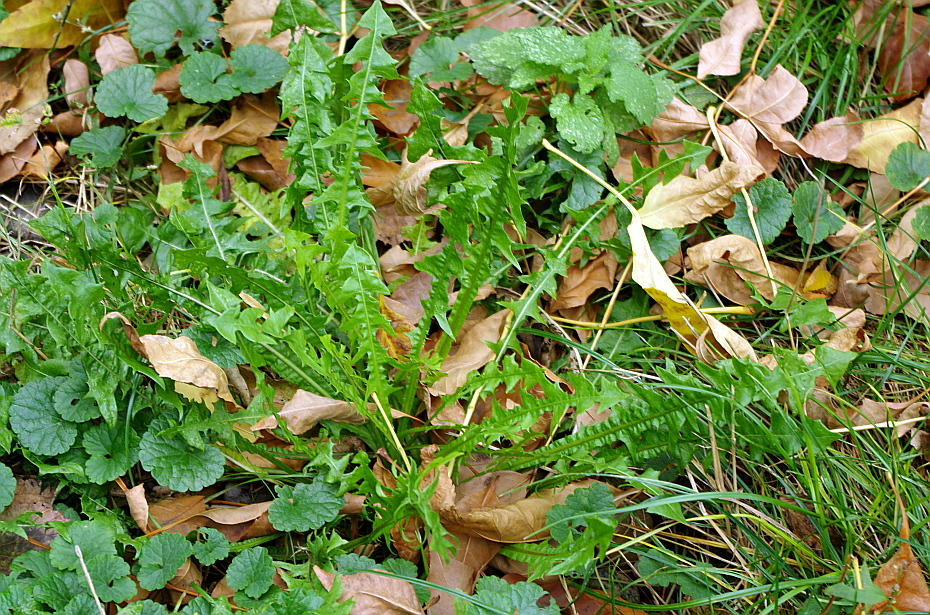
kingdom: Plantae
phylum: Tracheophyta
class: Magnoliopsida
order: Asterales
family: Asteraceae
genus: Taraxacum
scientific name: Taraxacum officinale
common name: Common dandelion
